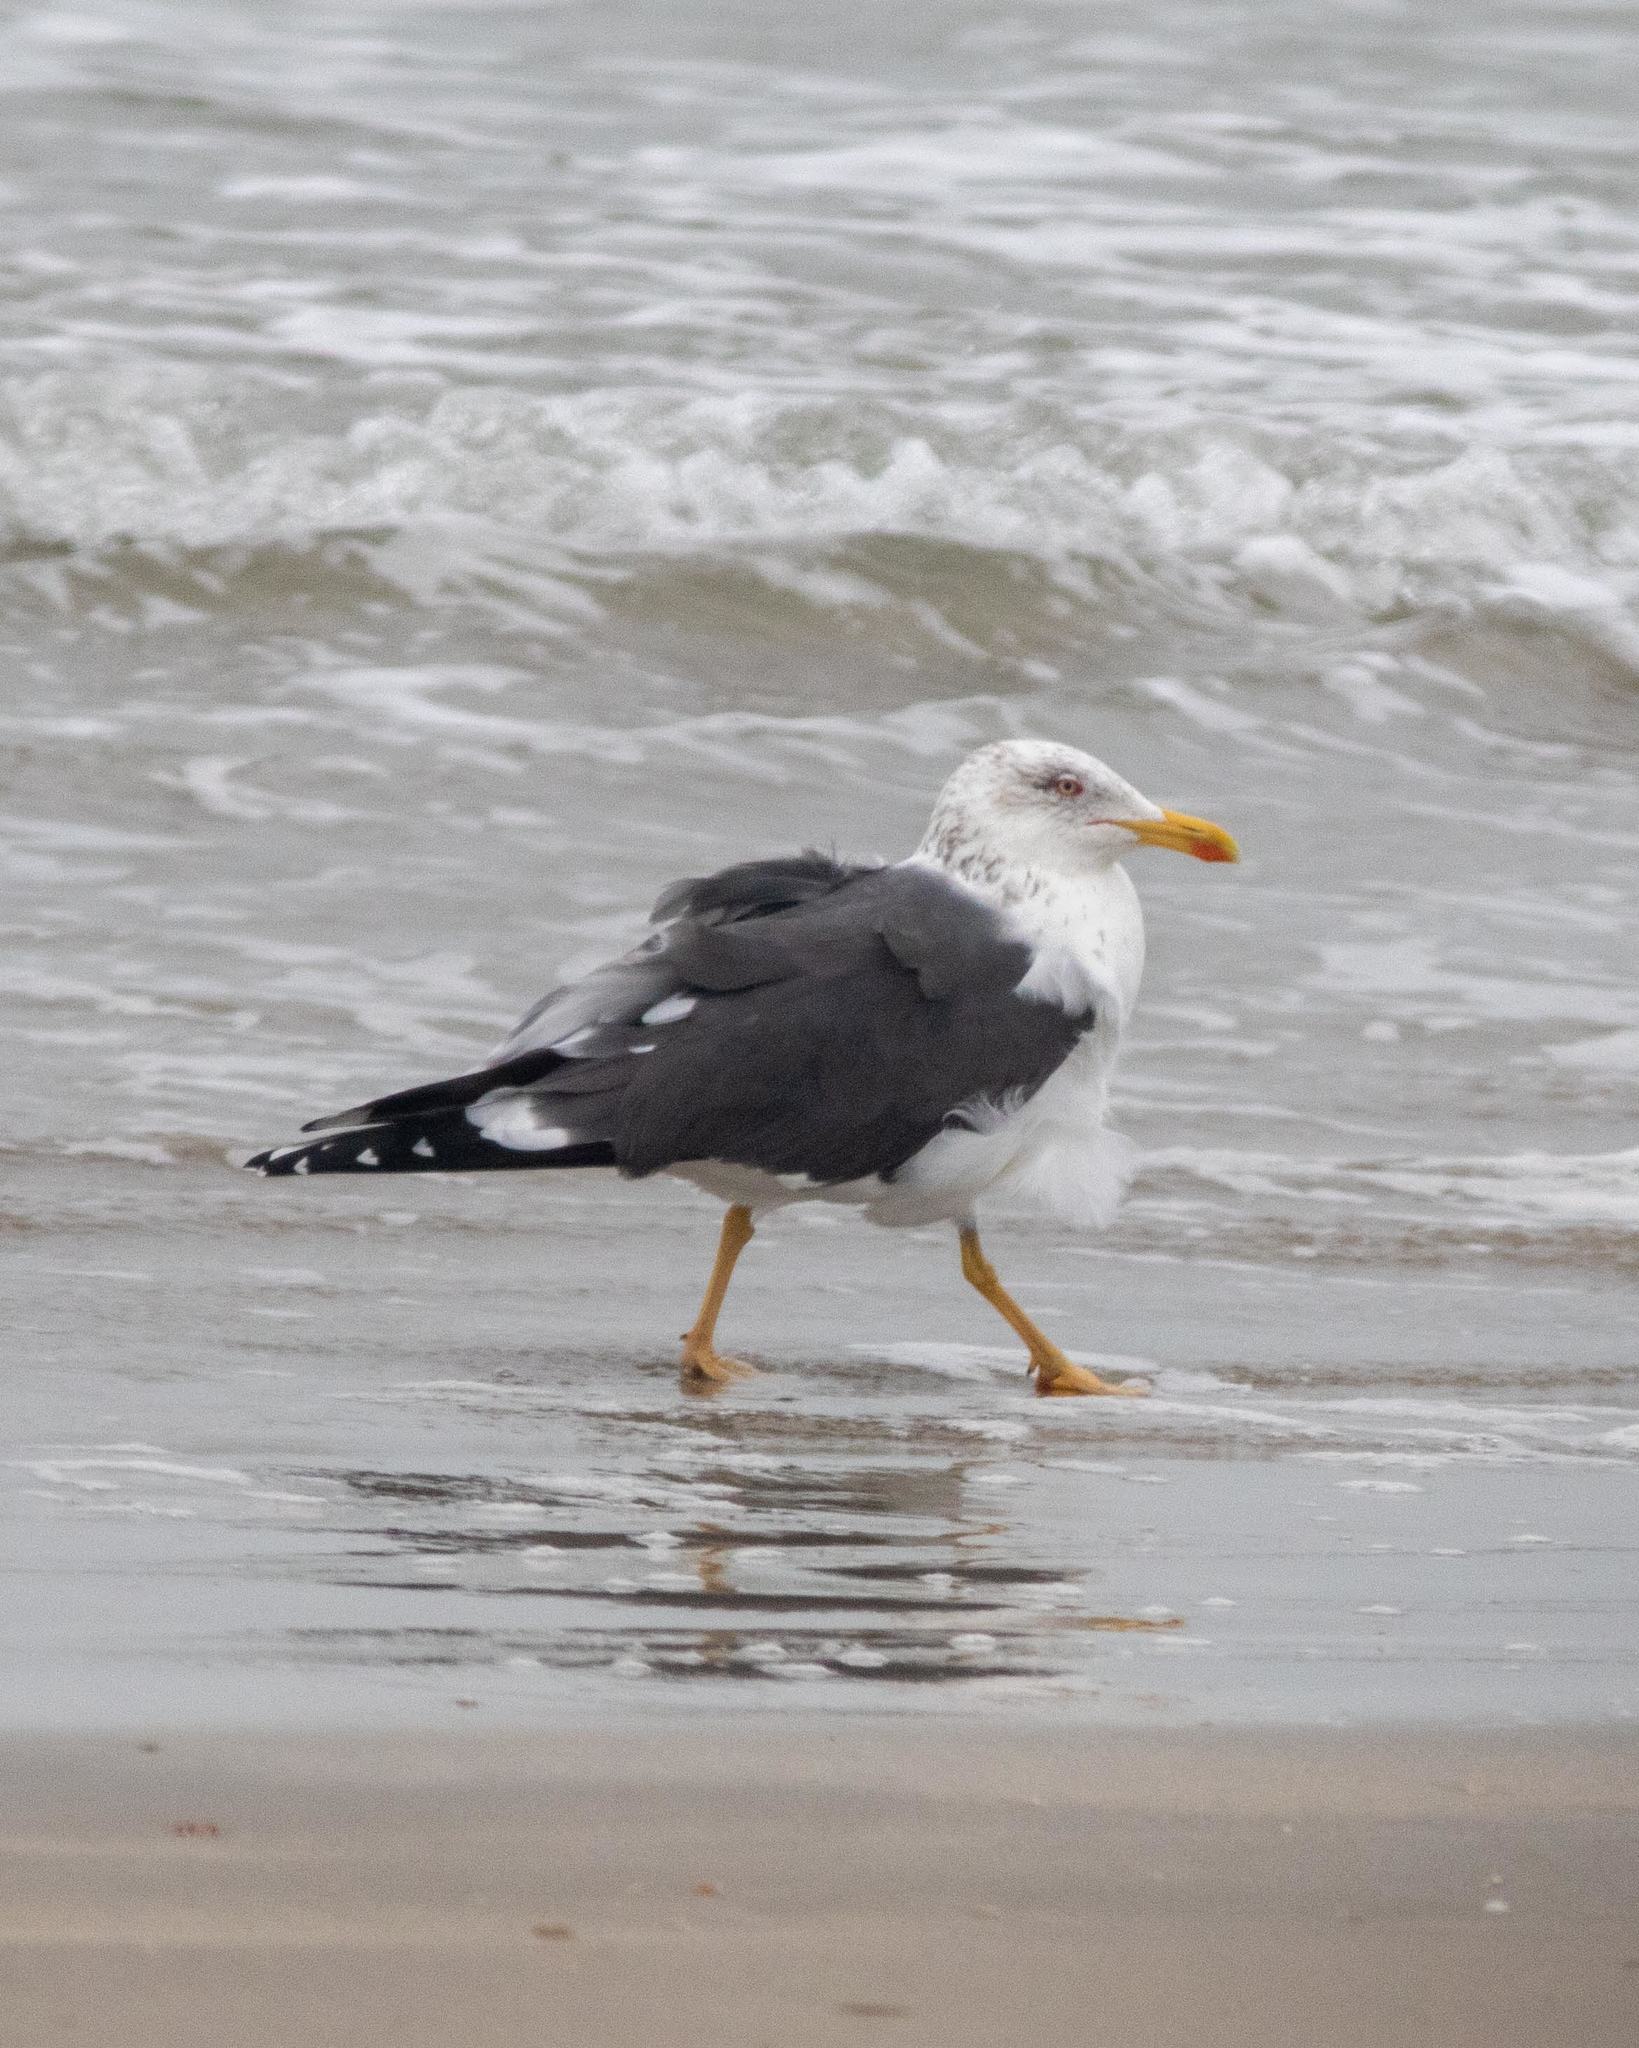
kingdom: Animalia
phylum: Chordata
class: Aves
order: Charadriiformes
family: Laridae
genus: Larus
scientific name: Larus fuscus
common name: Lesser black-backed gull
